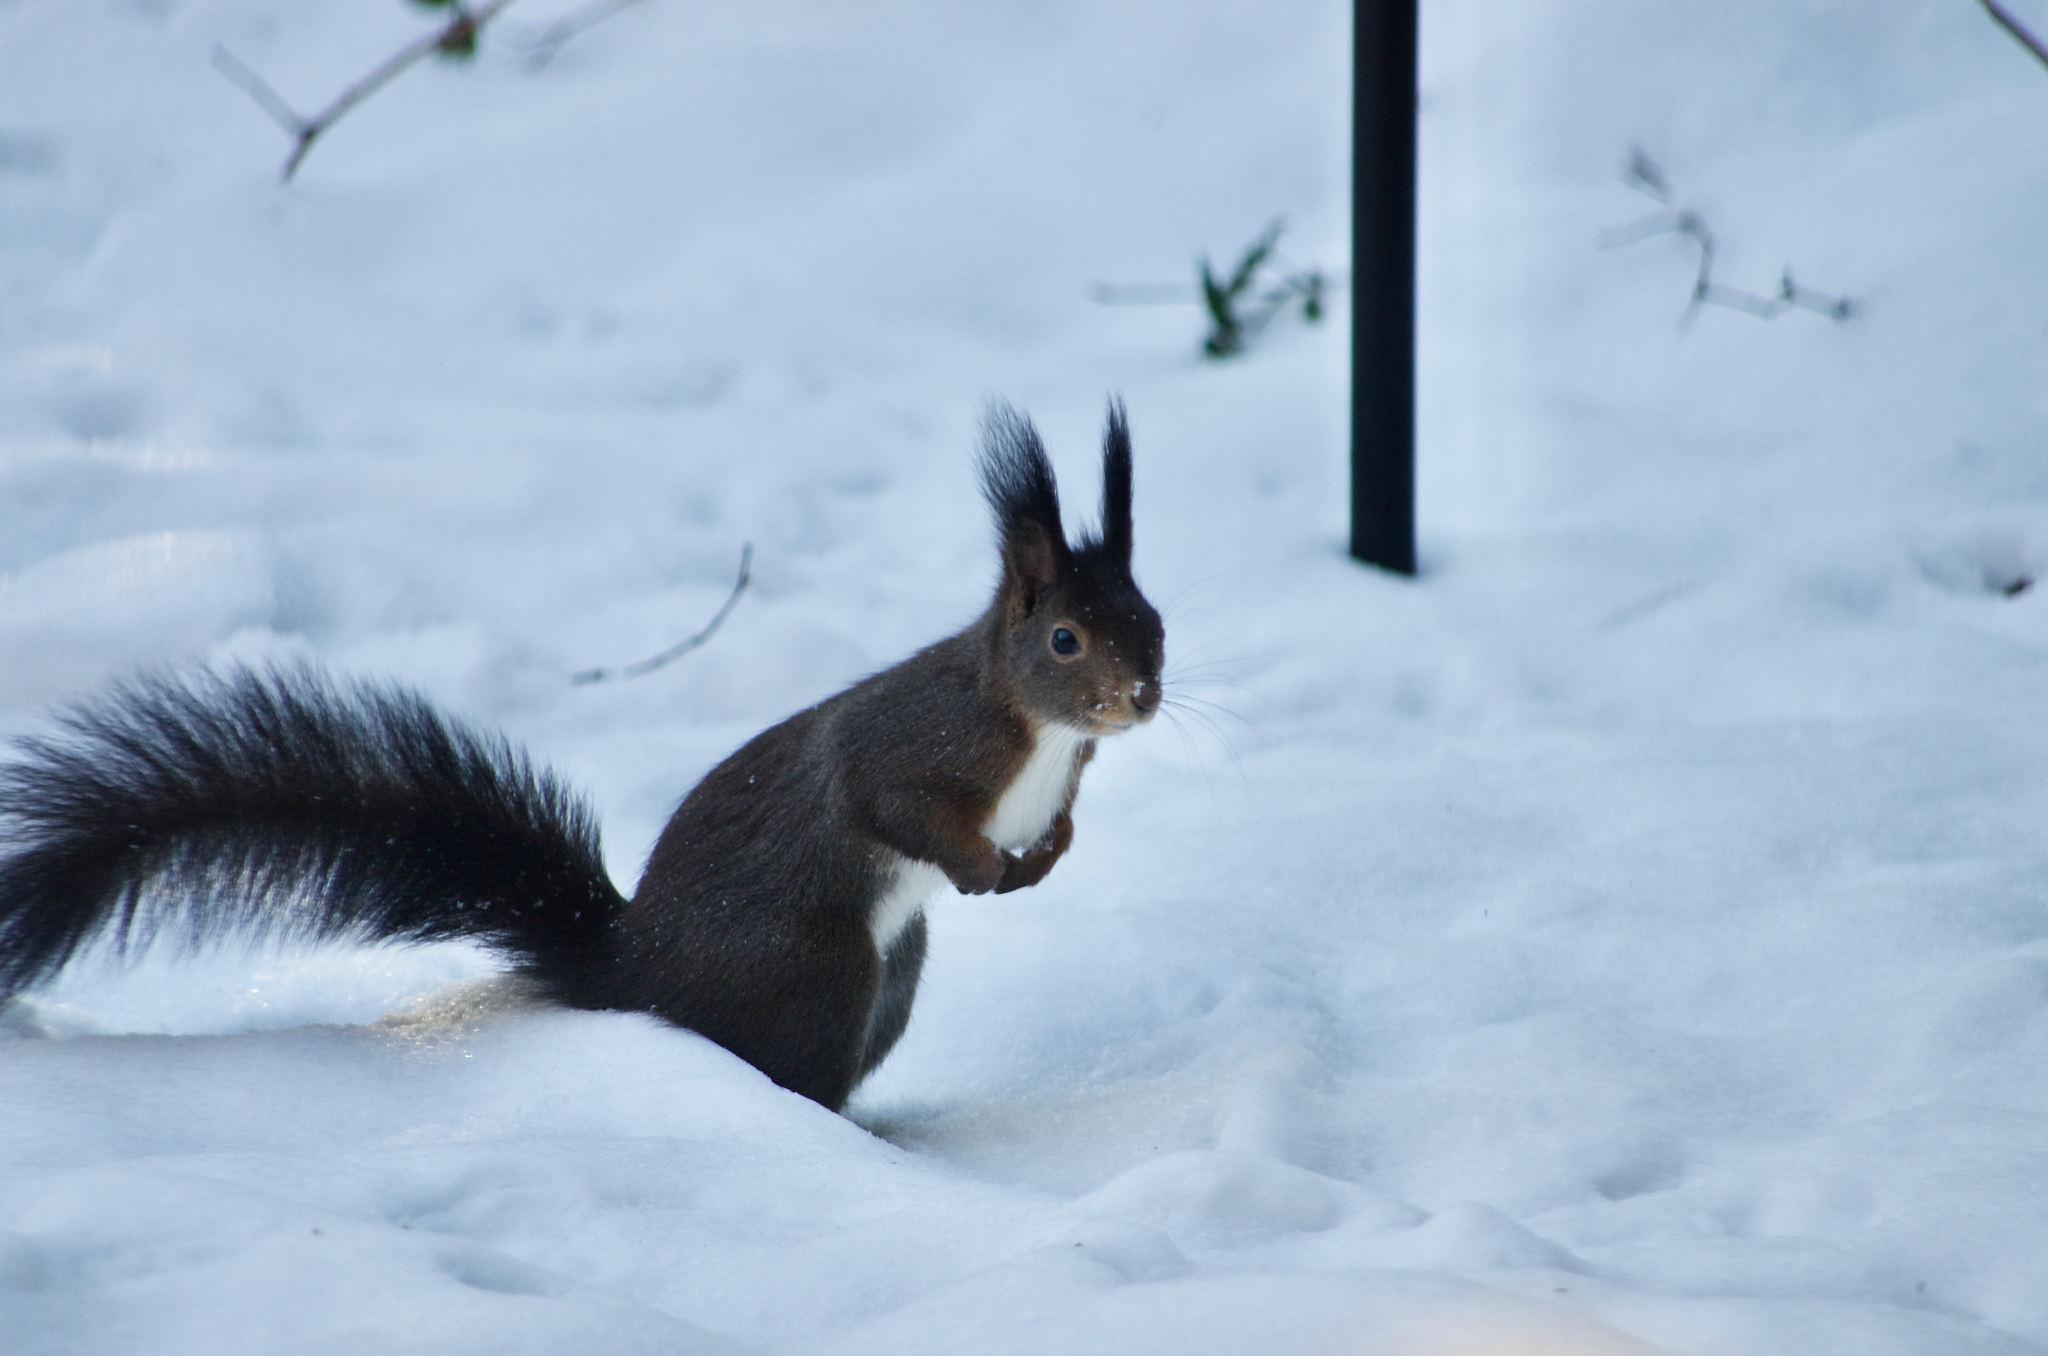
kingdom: Animalia
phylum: Chordata
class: Mammalia
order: Rodentia
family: Sciuridae
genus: Sciurus
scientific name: Sciurus vulgaris
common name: Eurasian red squirrel
